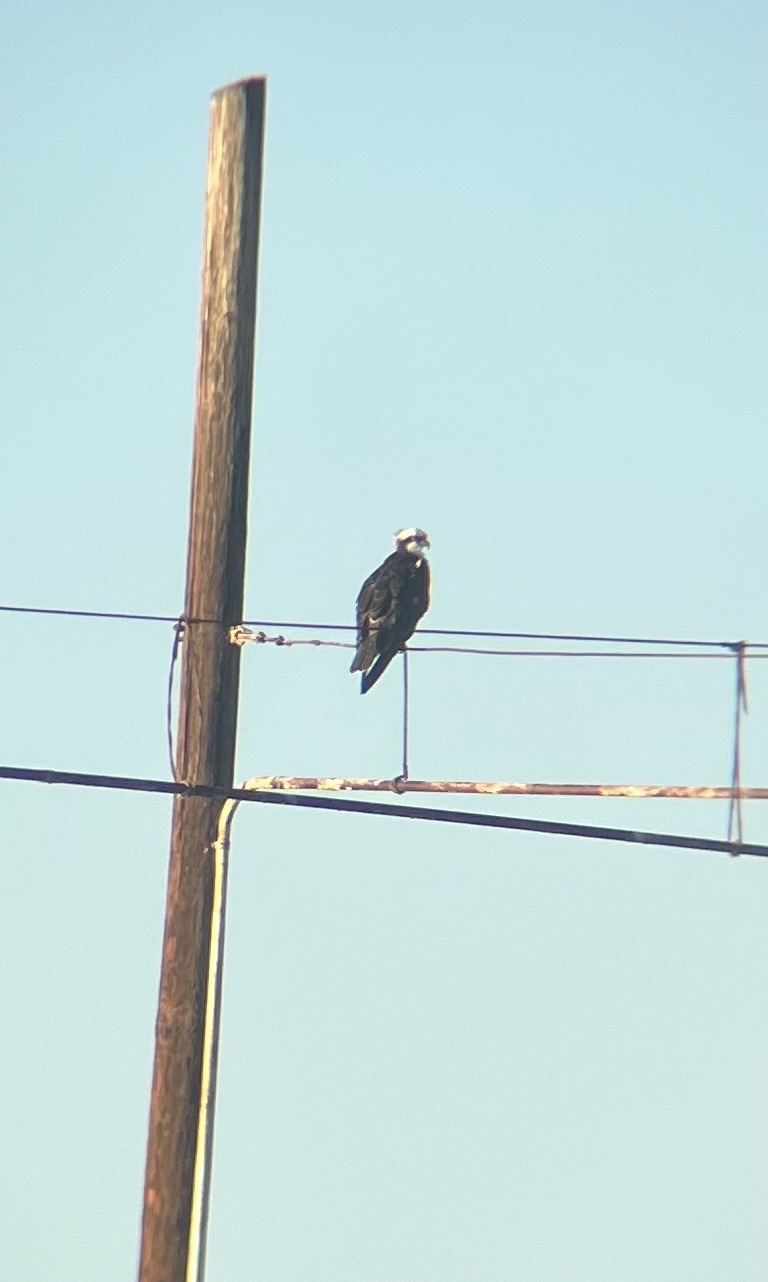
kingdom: Animalia
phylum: Chordata
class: Aves
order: Accipitriformes
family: Pandionidae
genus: Pandion
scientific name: Pandion haliaetus
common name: Osprey
